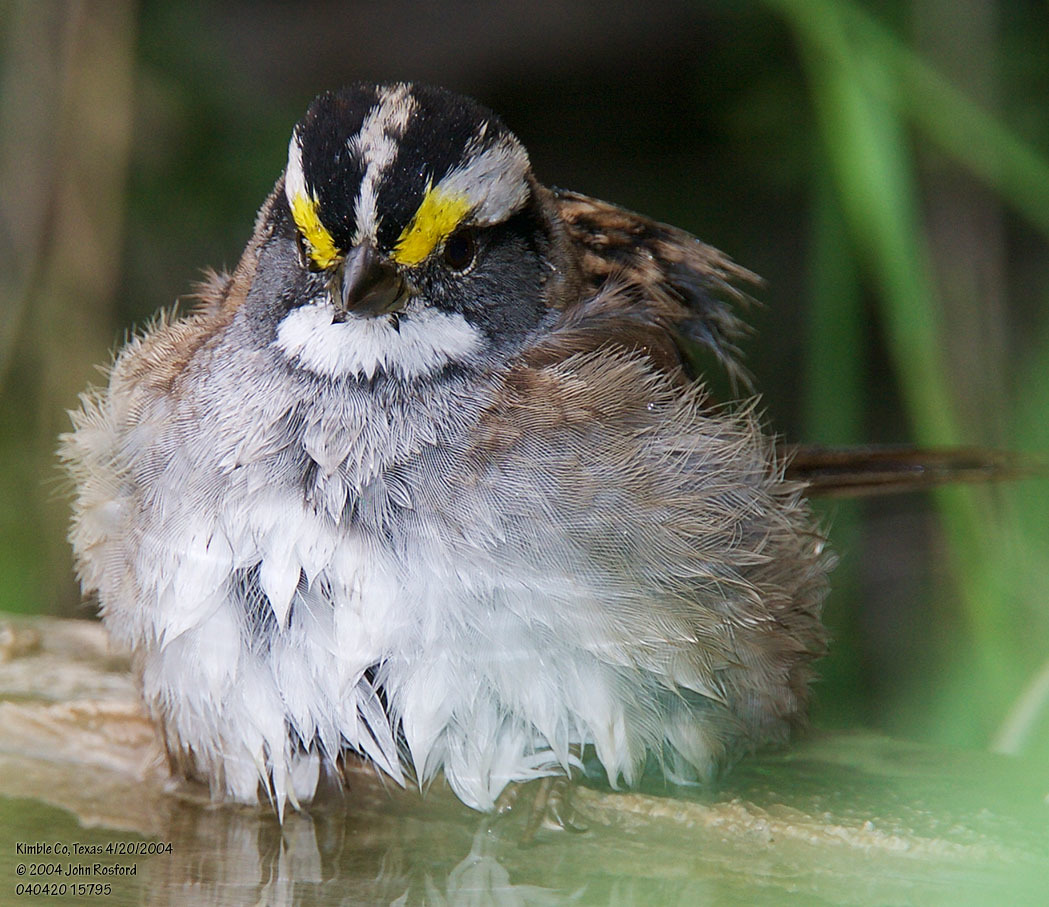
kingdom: Animalia
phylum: Chordata
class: Aves
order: Passeriformes
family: Passerellidae
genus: Zonotrichia
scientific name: Zonotrichia albicollis
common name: White-throated sparrow
